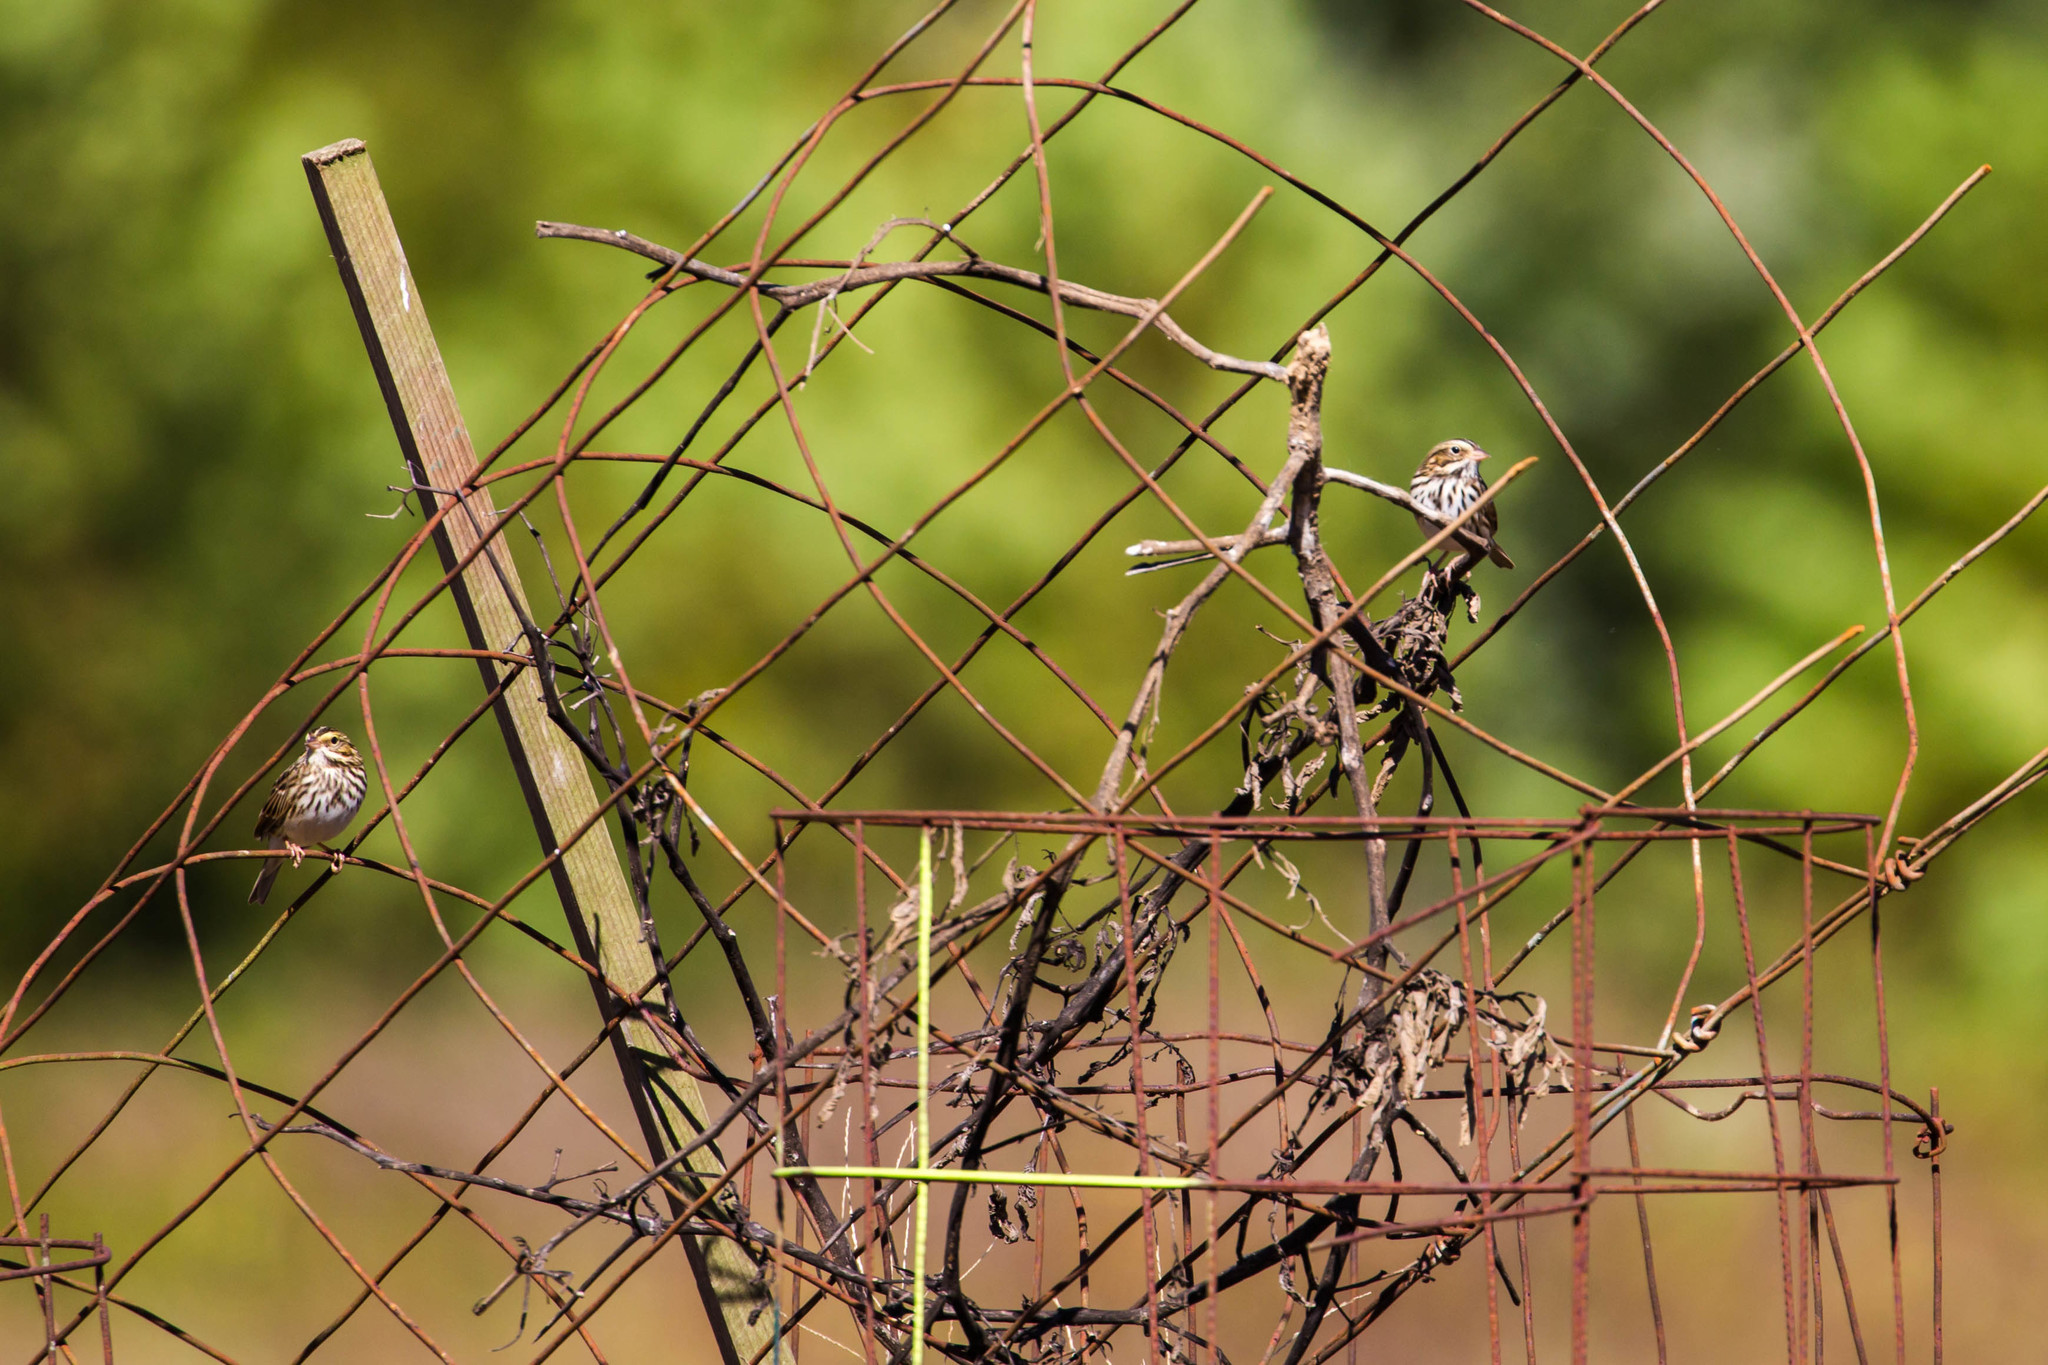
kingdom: Animalia
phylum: Chordata
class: Aves
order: Passeriformes
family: Passerellidae
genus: Passerculus
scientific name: Passerculus sandwichensis
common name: Savannah sparrow
